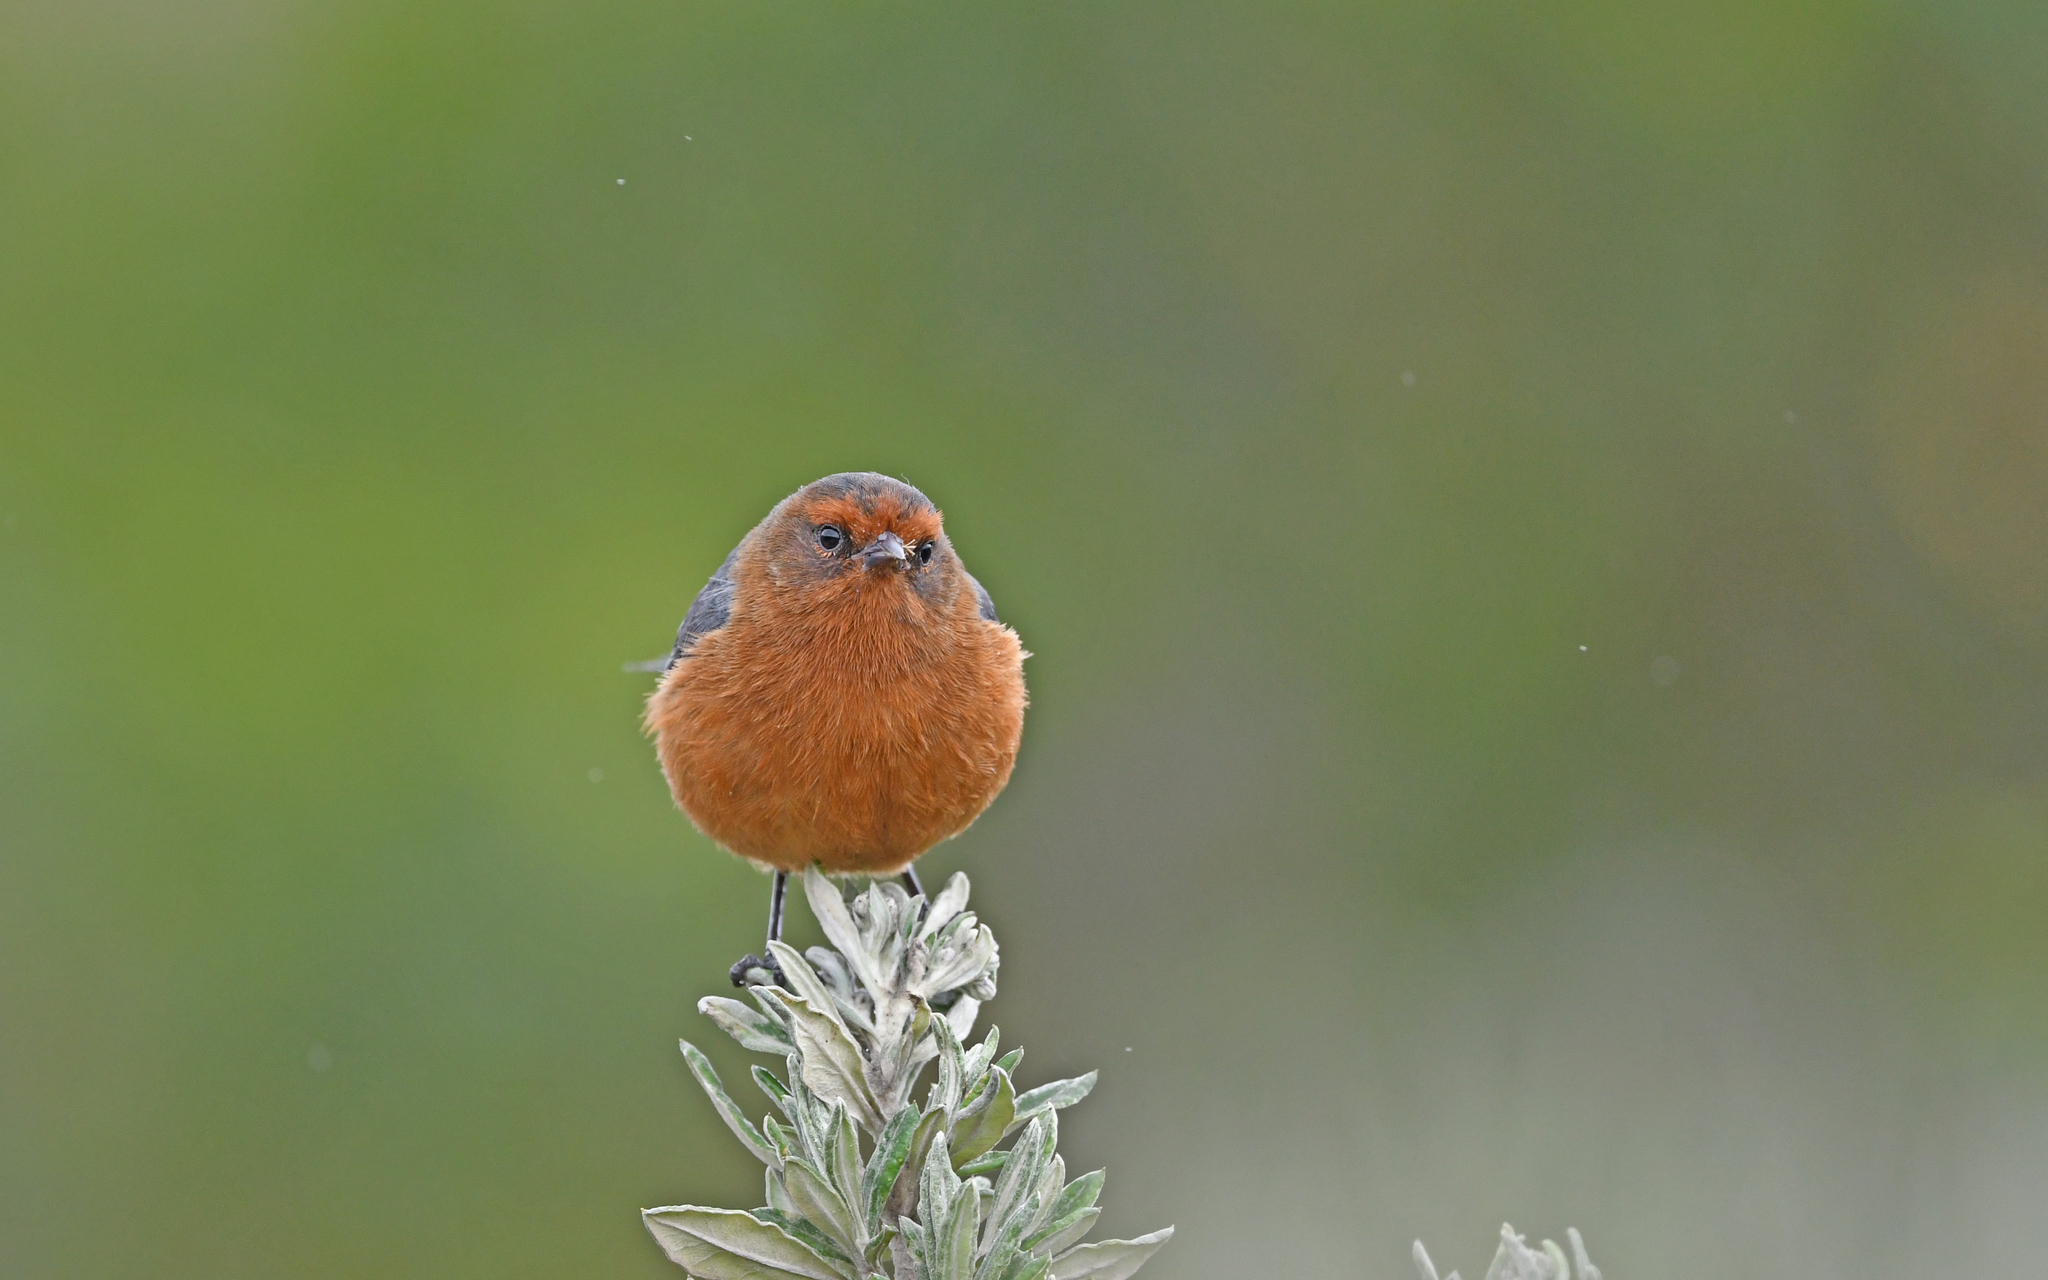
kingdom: Animalia
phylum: Chordata
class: Aves
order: Passeriformes
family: Thraupidae
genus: Conirostrum
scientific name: Conirostrum rufum
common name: Rufous-browed conebill
